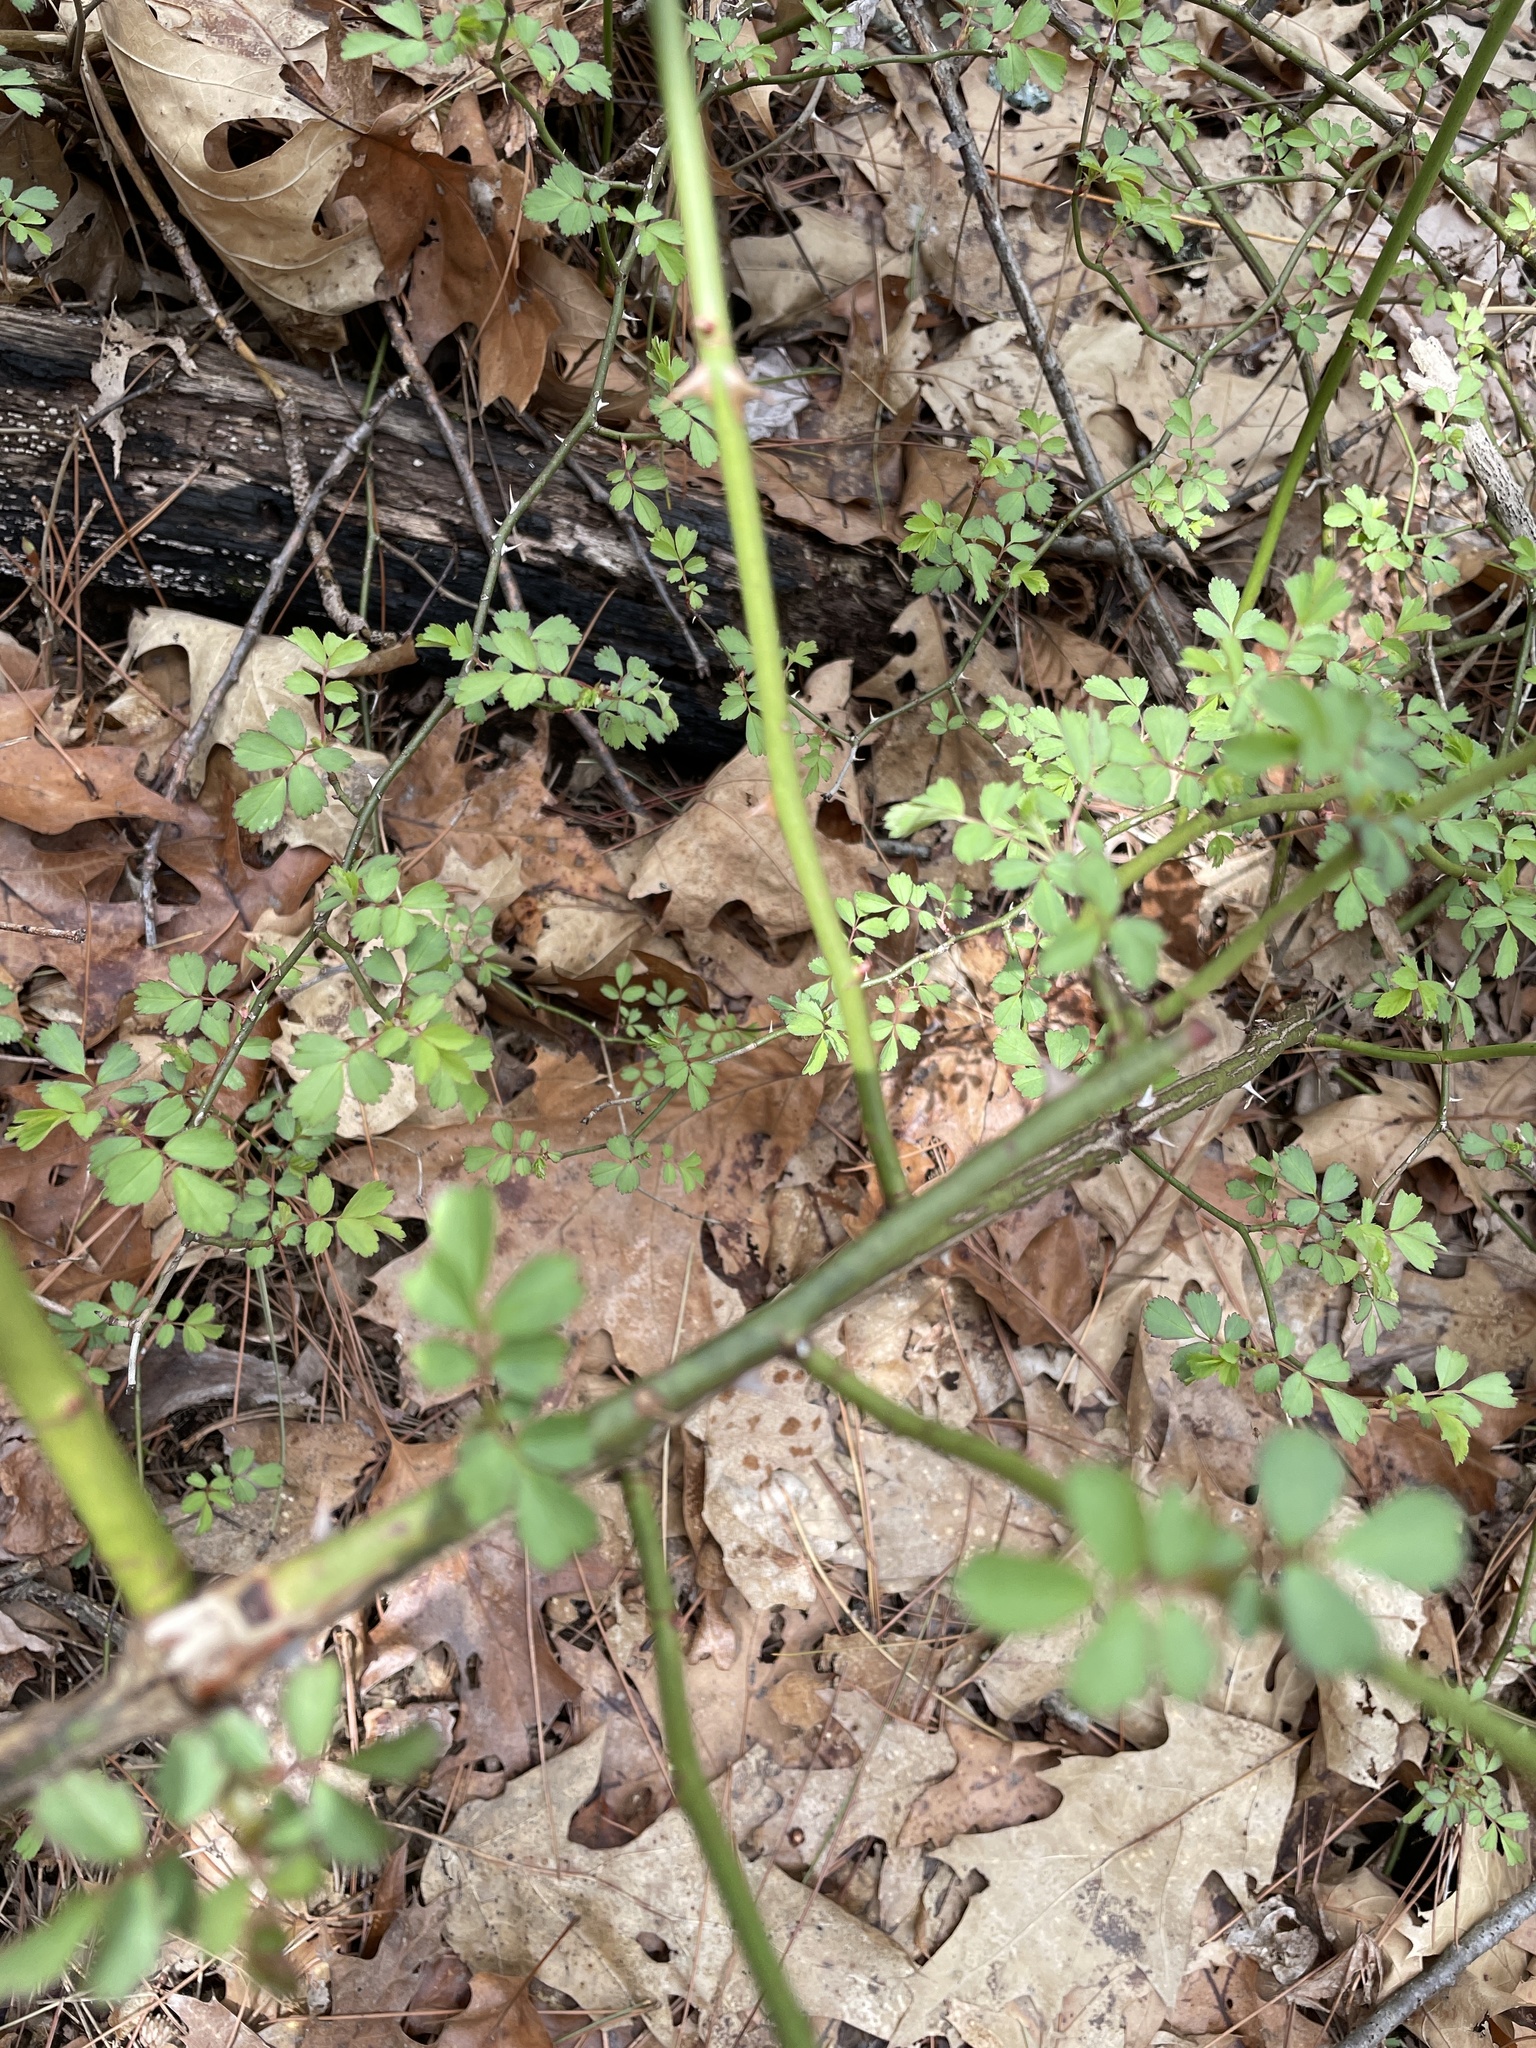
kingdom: Plantae
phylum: Tracheophyta
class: Magnoliopsida
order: Rosales
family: Rosaceae
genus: Rosa
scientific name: Rosa multiflora
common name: Multiflora rose
